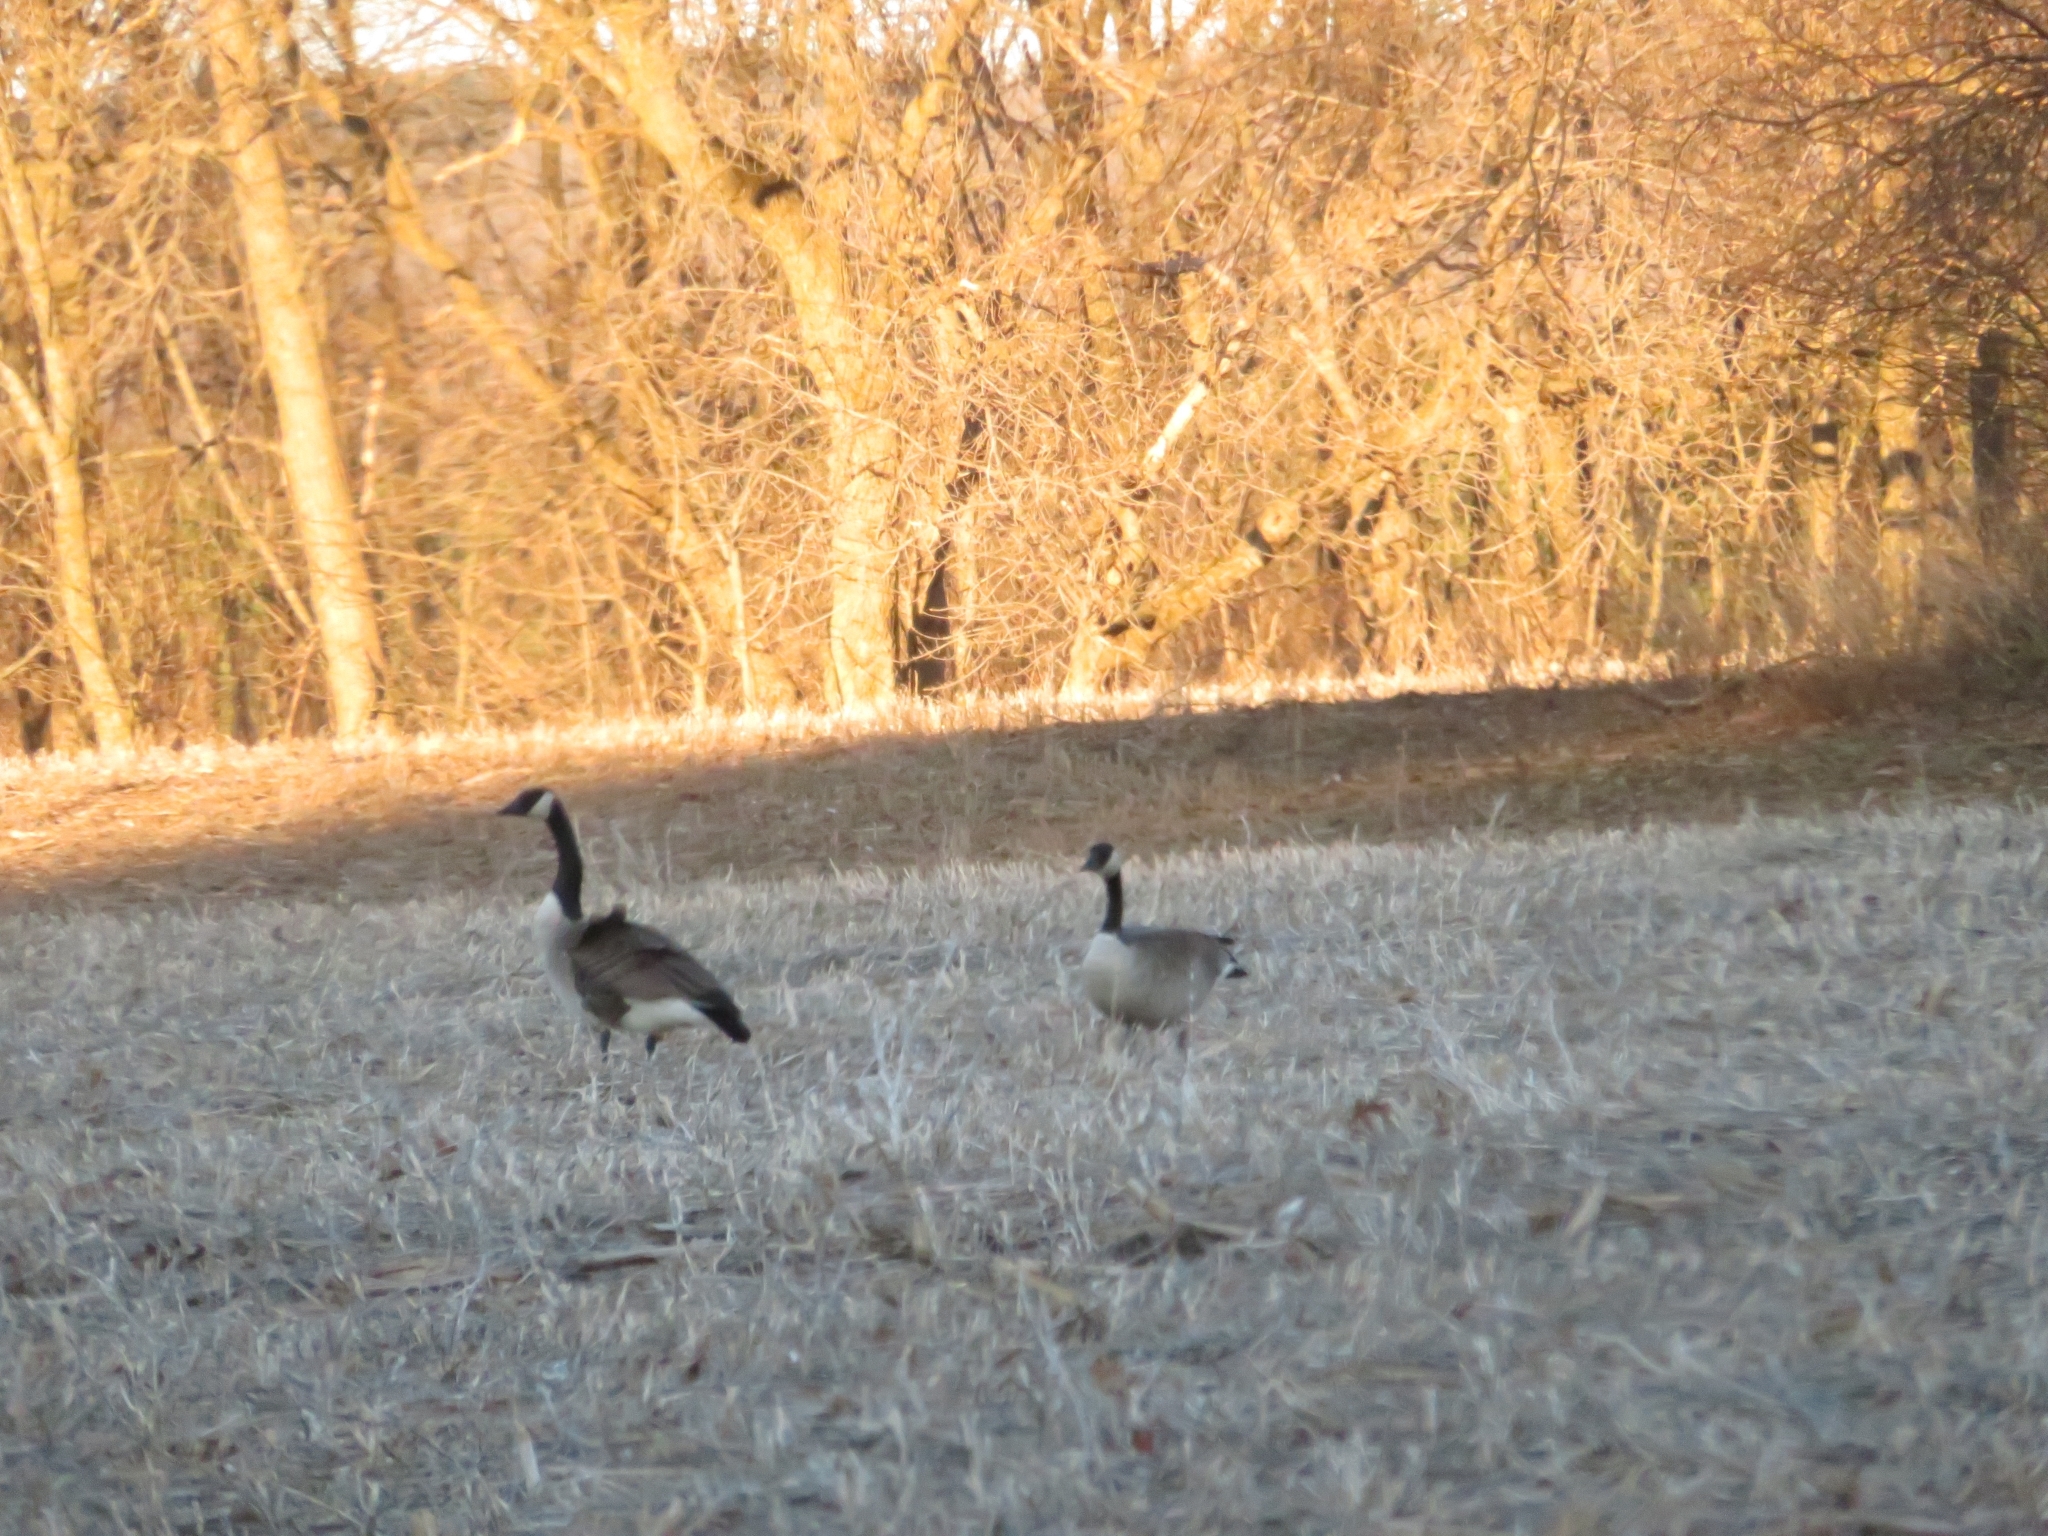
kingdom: Animalia
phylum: Chordata
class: Aves
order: Anseriformes
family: Anatidae
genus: Branta
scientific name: Branta canadensis
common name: Canada goose
